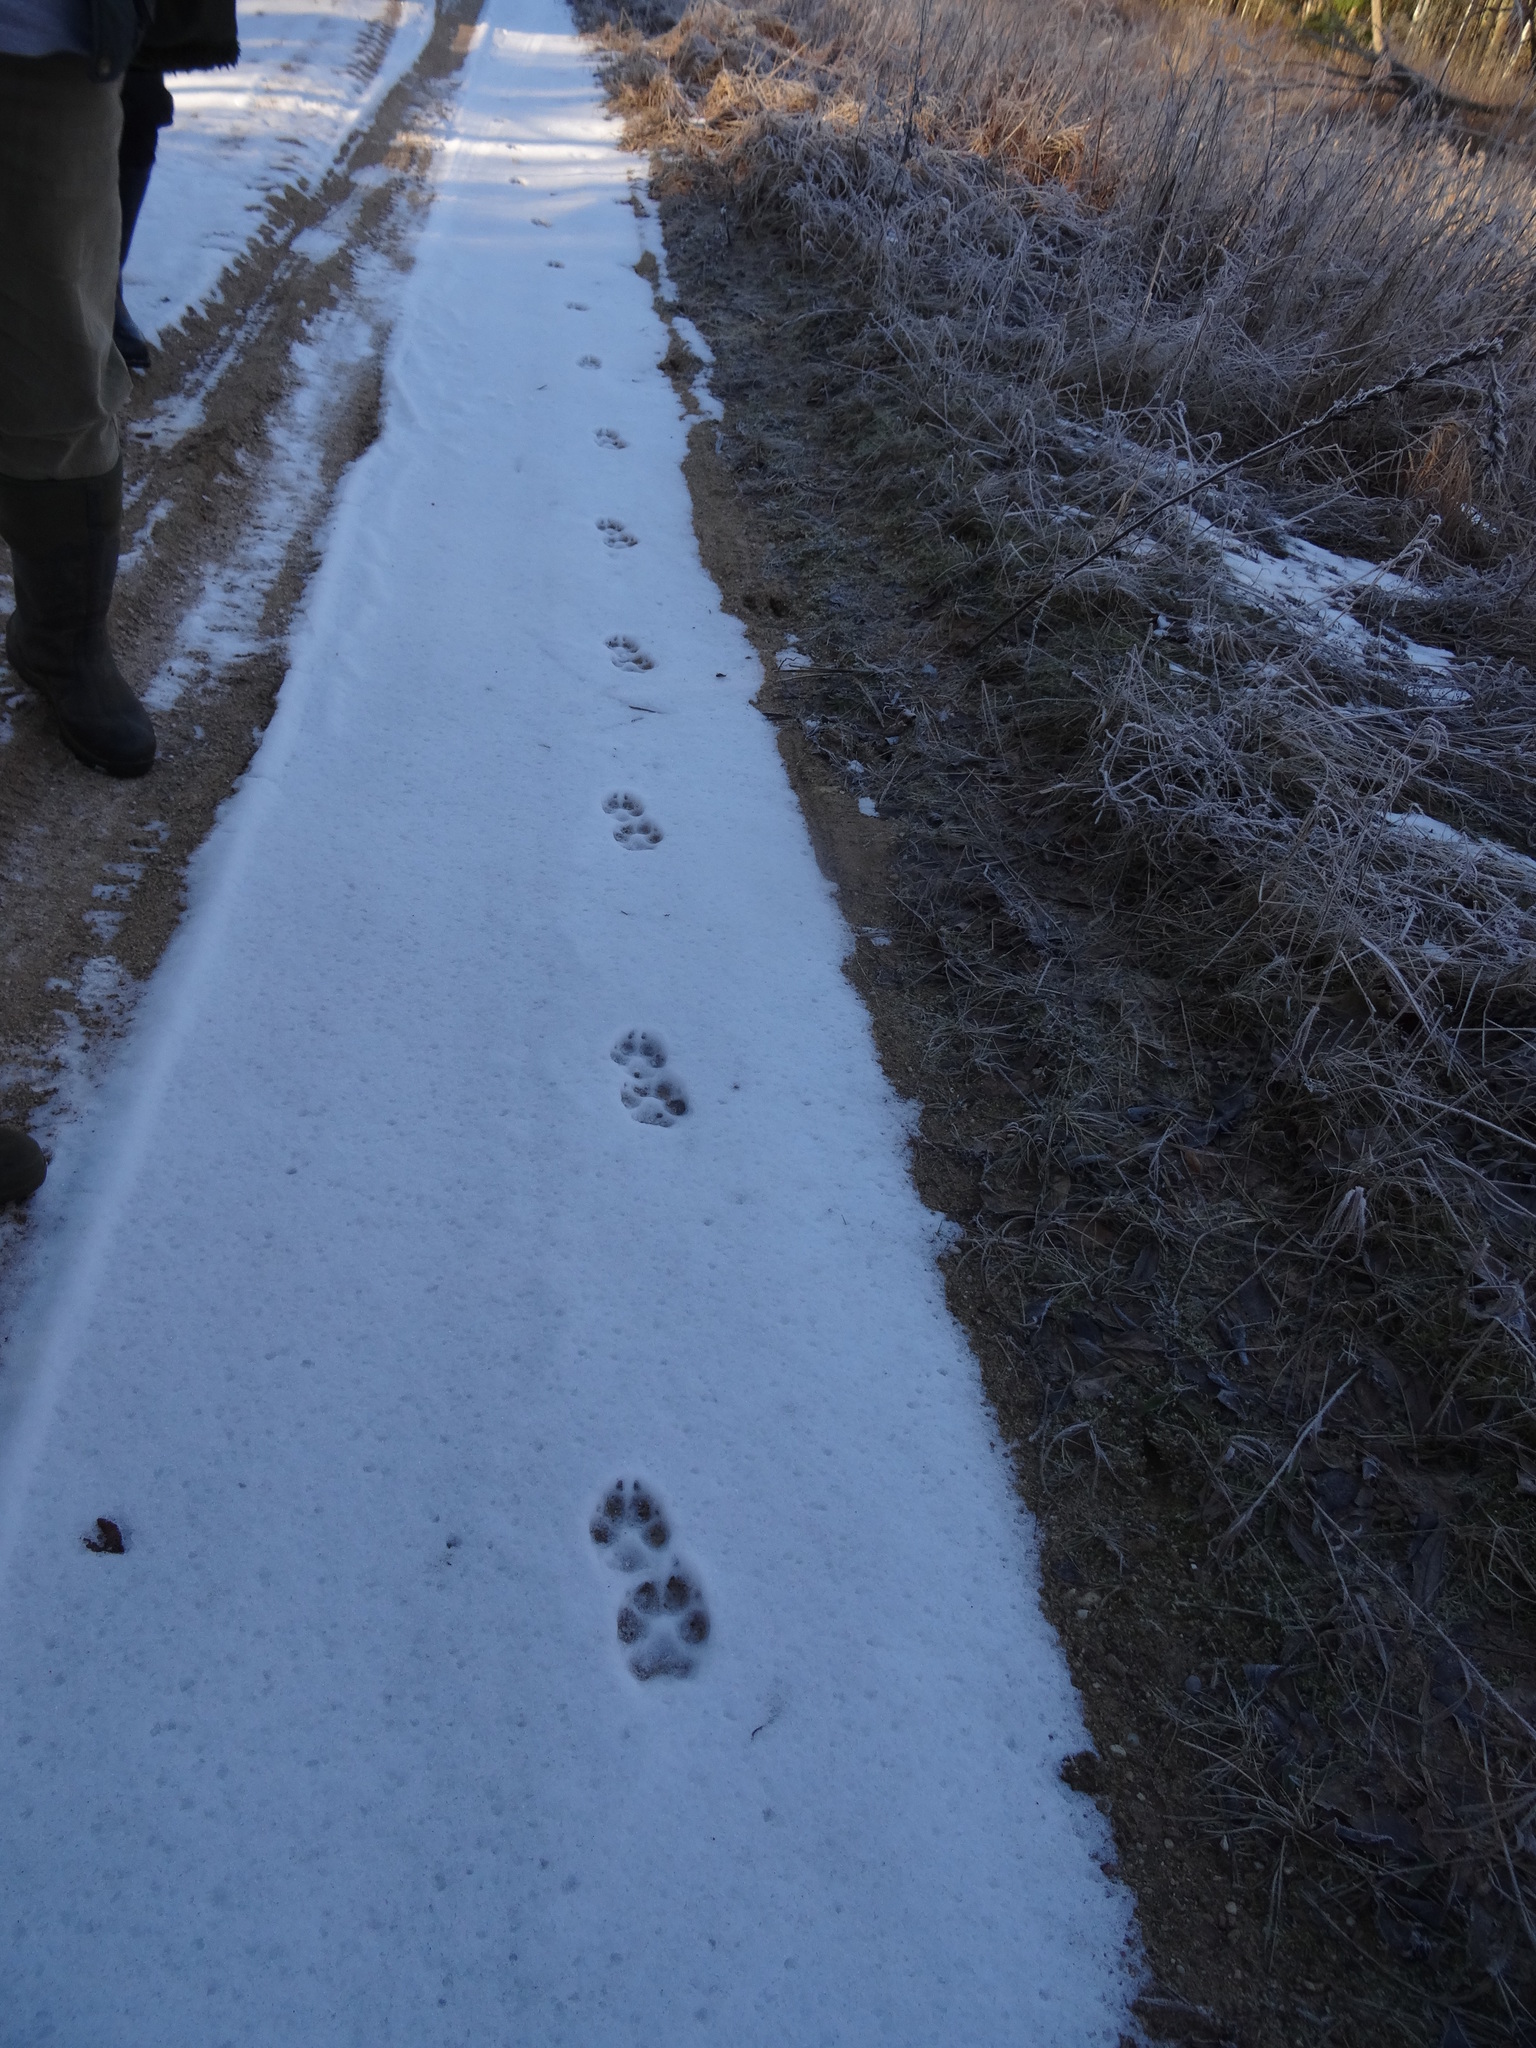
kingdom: Animalia
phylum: Chordata
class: Mammalia
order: Carnivora
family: Canidae
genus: Canis
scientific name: Canis lupus
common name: Gray wolf
